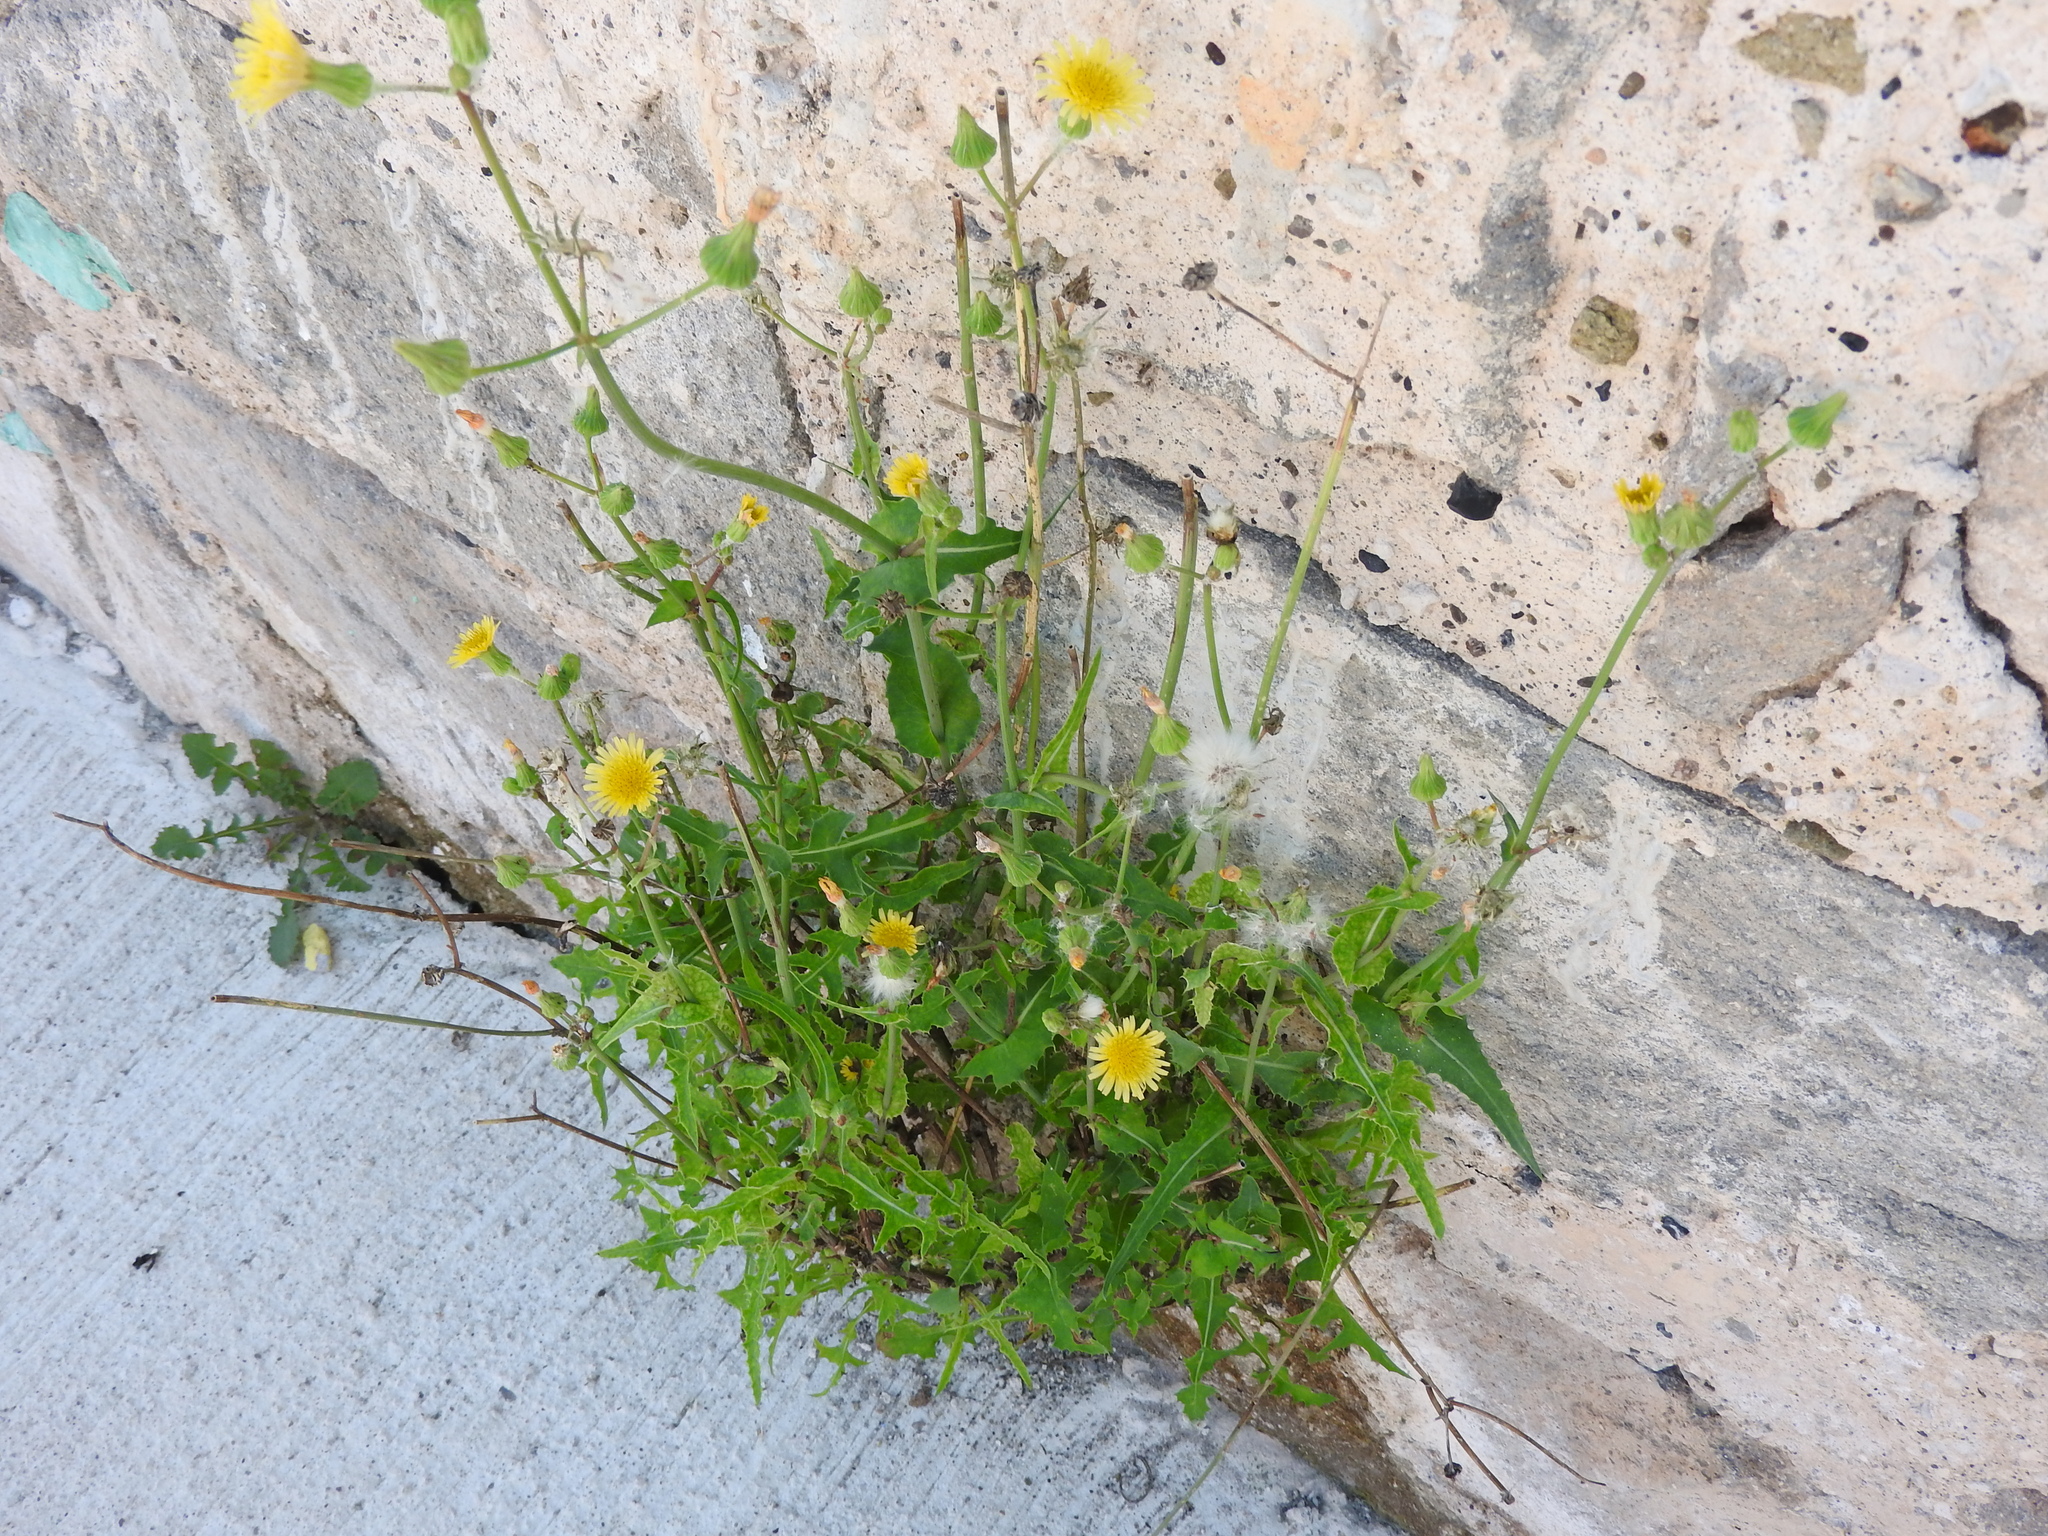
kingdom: Plantae
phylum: Tracheophyta
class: Magnoliopsida
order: Asterales
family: Asteraceae
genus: Sonchus
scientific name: Sonchus oleraceus
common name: Common sowthistle
